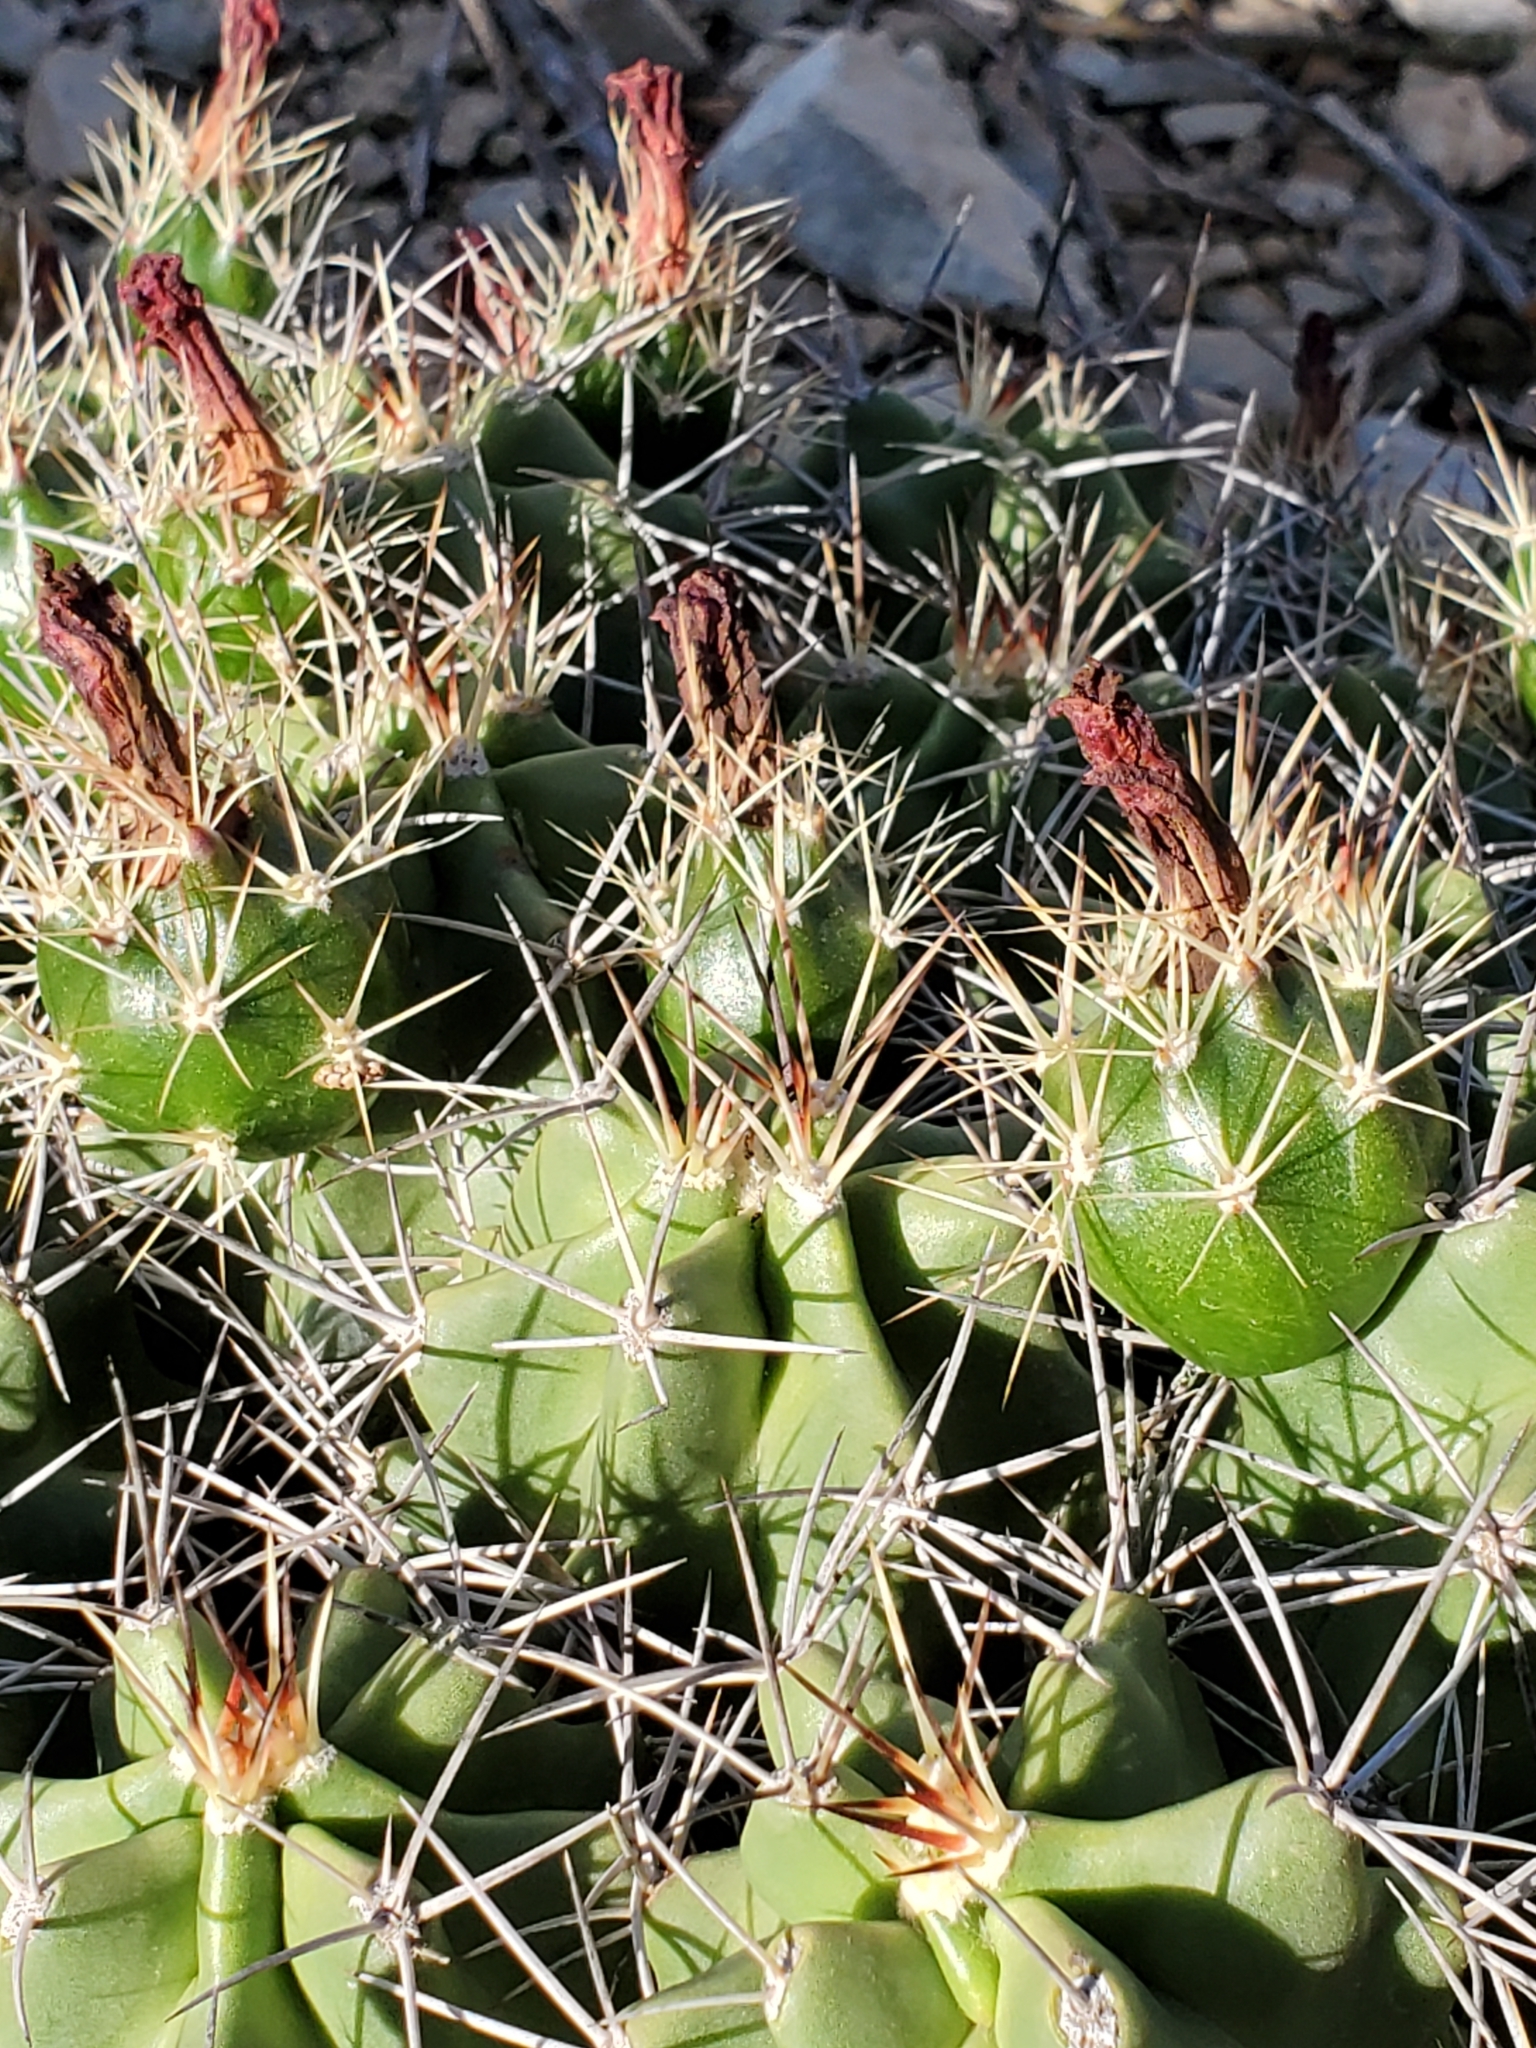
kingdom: Plantae
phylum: Tracheophyta
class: Magnoliopsida
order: Caryophyllales
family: Cactaceae
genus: Echinocereus
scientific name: Echinocereus coccineus
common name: Scarlet hedgehog cactus
